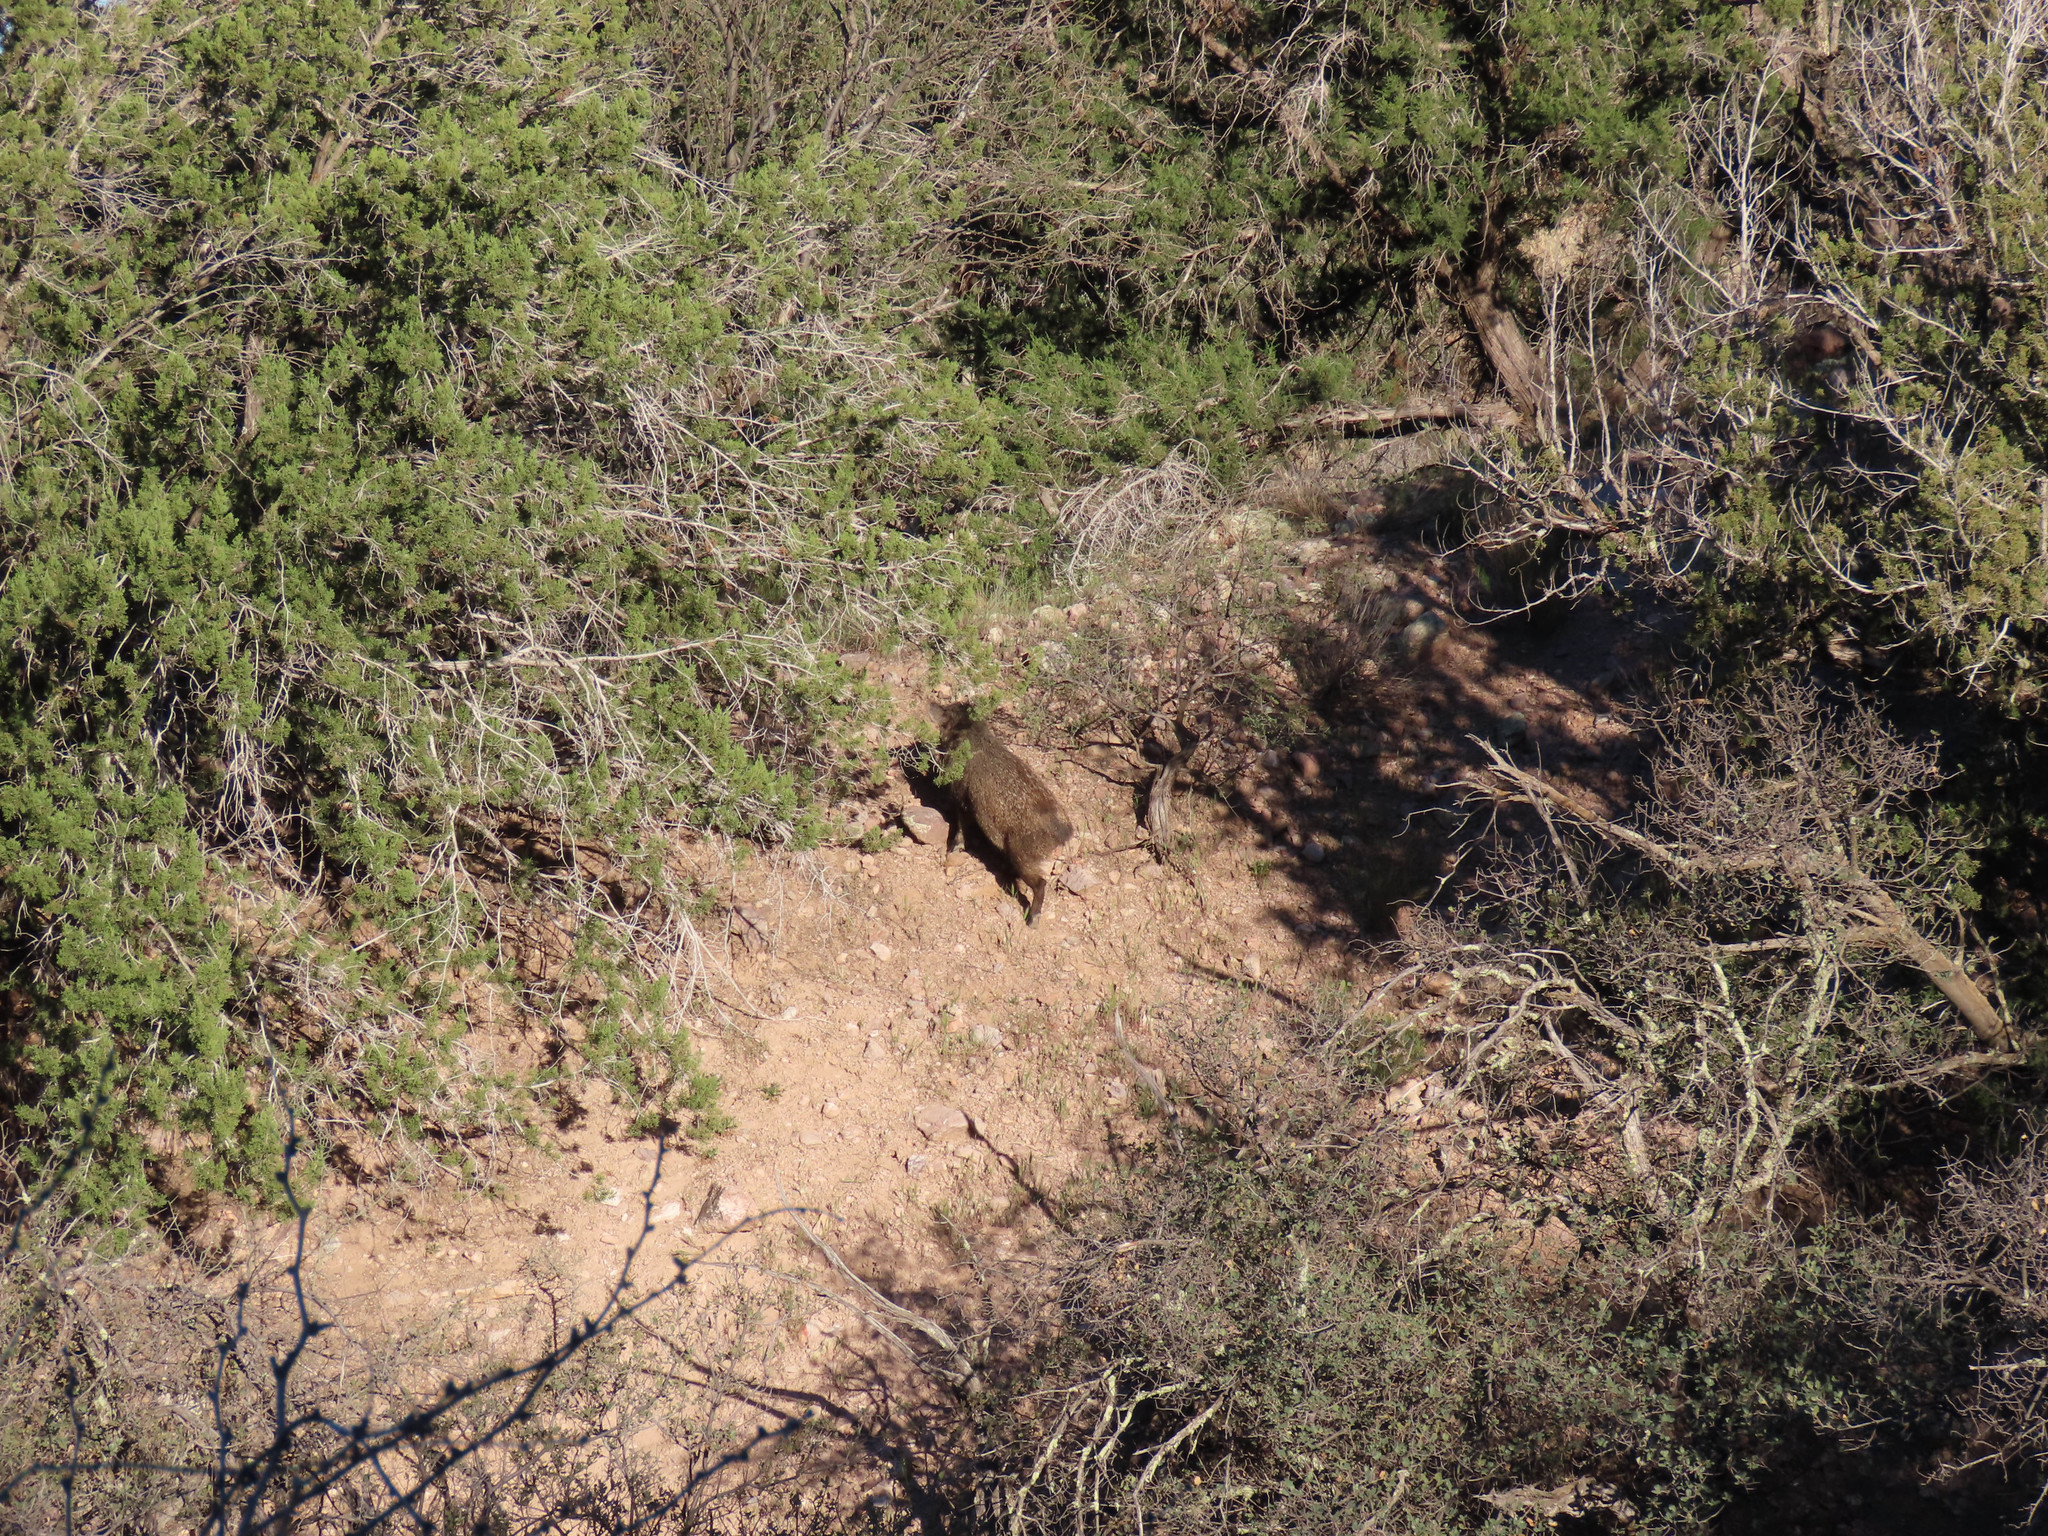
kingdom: Animalia
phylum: Chordata
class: Mammalia
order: Artiodactyla
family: Tayassuidae
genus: Pecari
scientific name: Pecari tajacu
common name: Collared peccary
